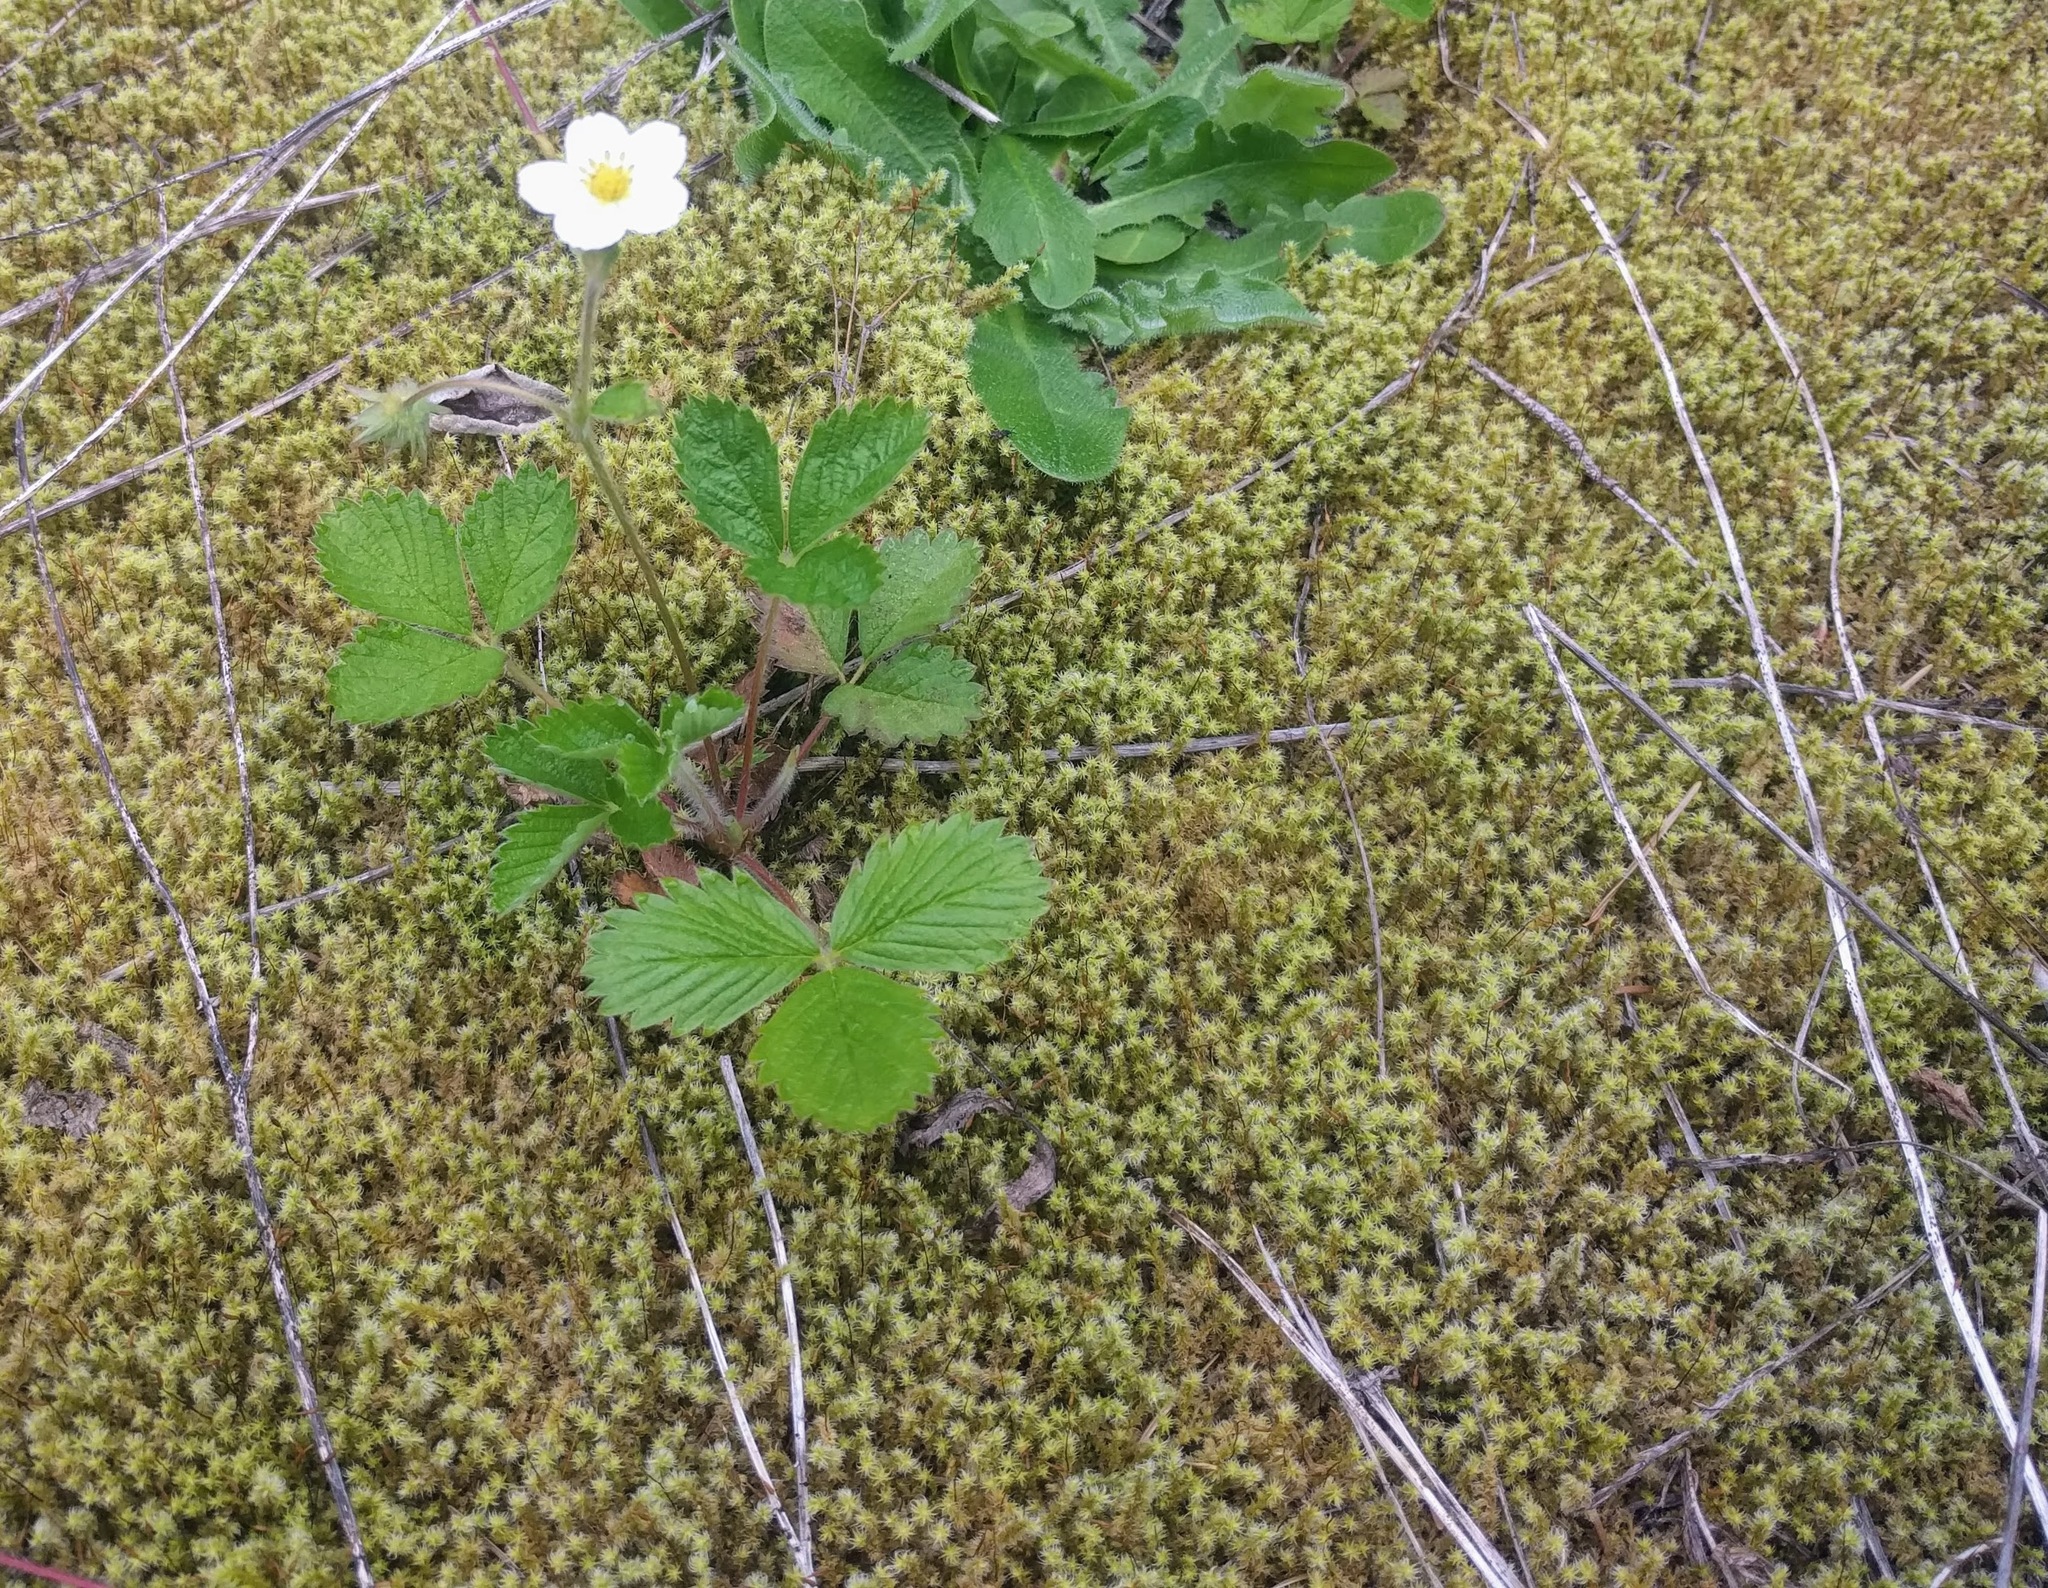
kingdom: Plantae
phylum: Tracheophyta
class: Magnoliopsida
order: Rosales
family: Rosaceae
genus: Fragaria
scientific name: Fragaria vesca
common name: Wild strawberry
